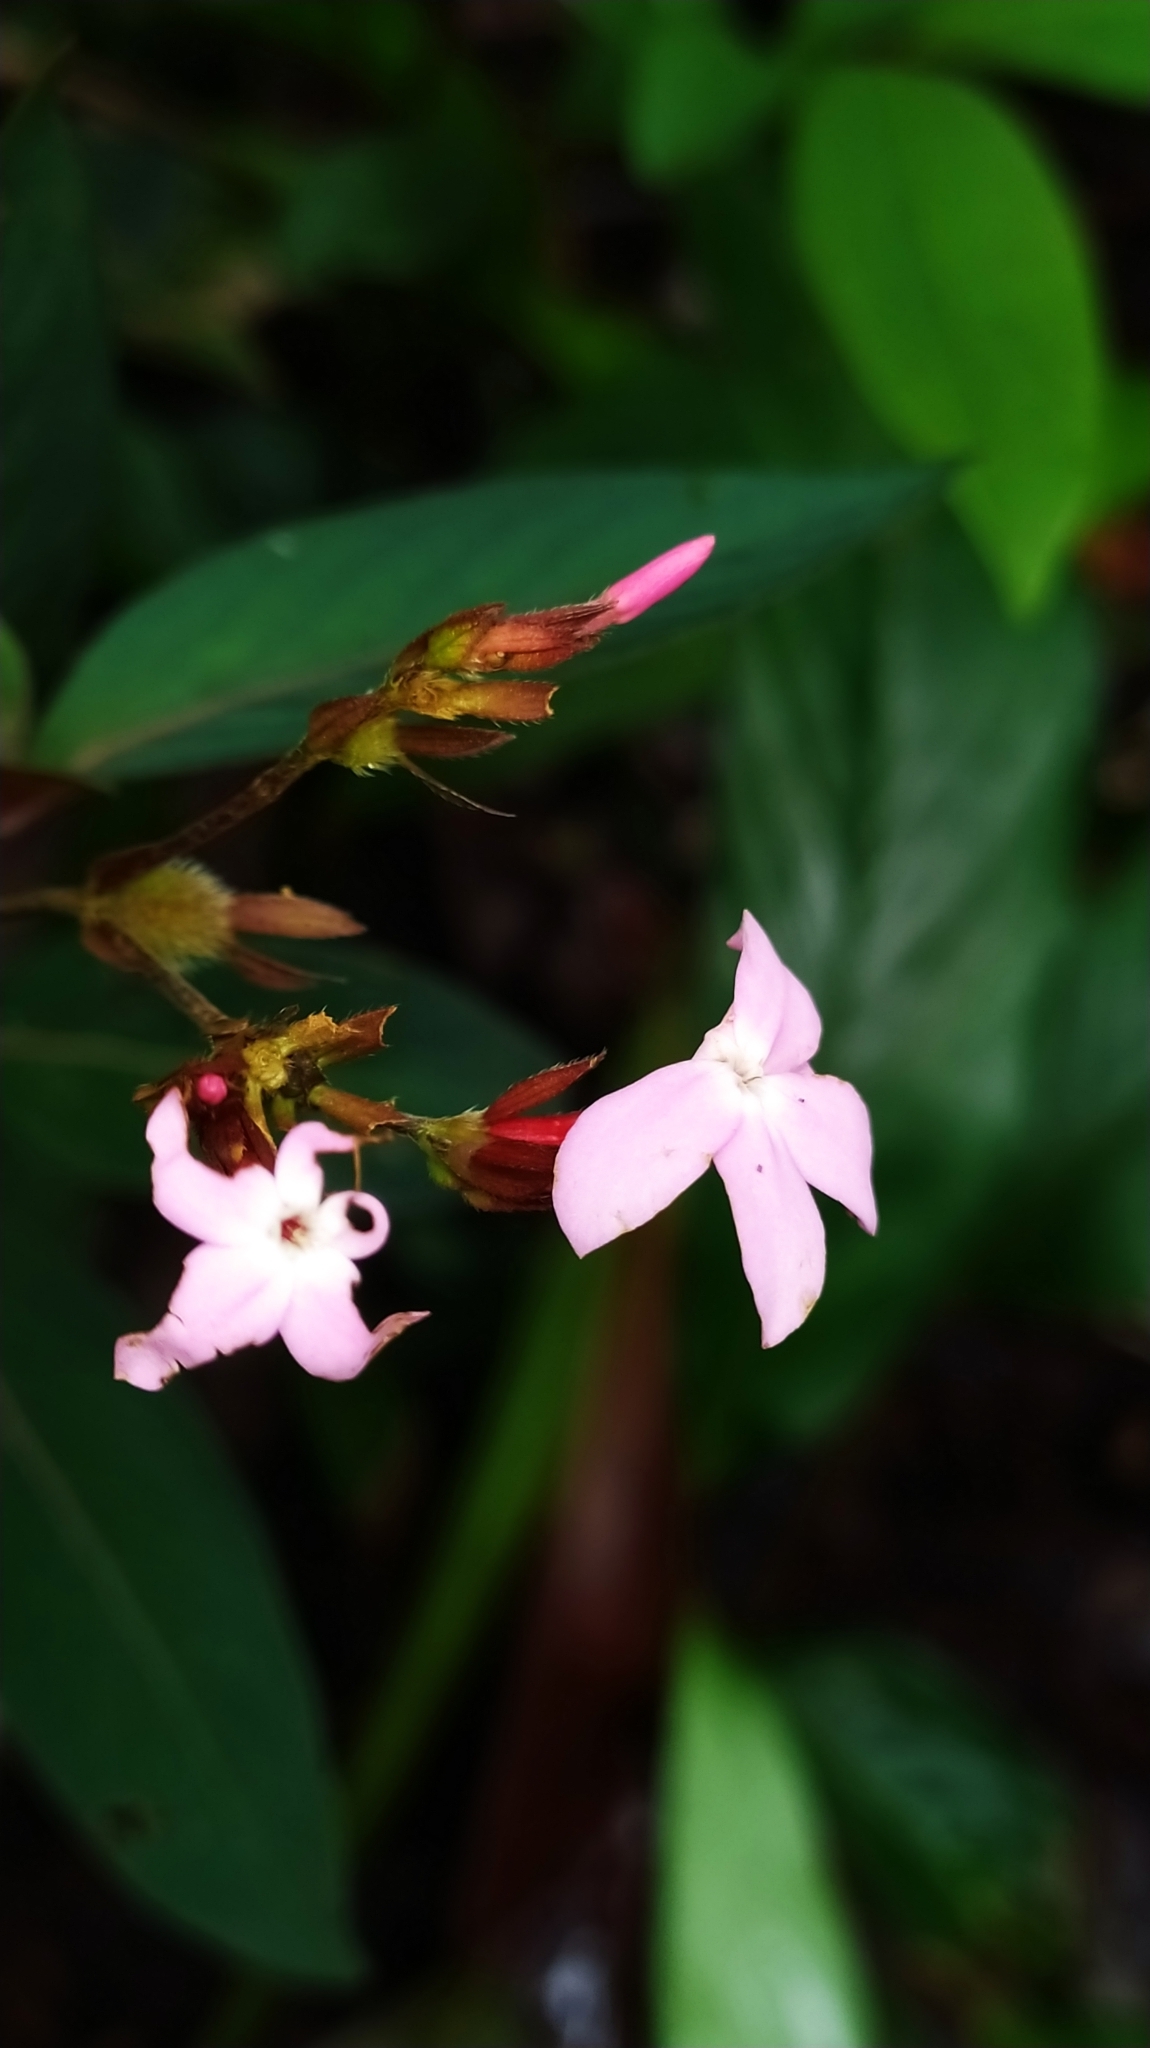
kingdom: Plantae
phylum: Tracheophyta
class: Magnoliopsida
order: Gentianales
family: Rubiaceae
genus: Sipanea
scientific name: Sipanea wilson-brownei
